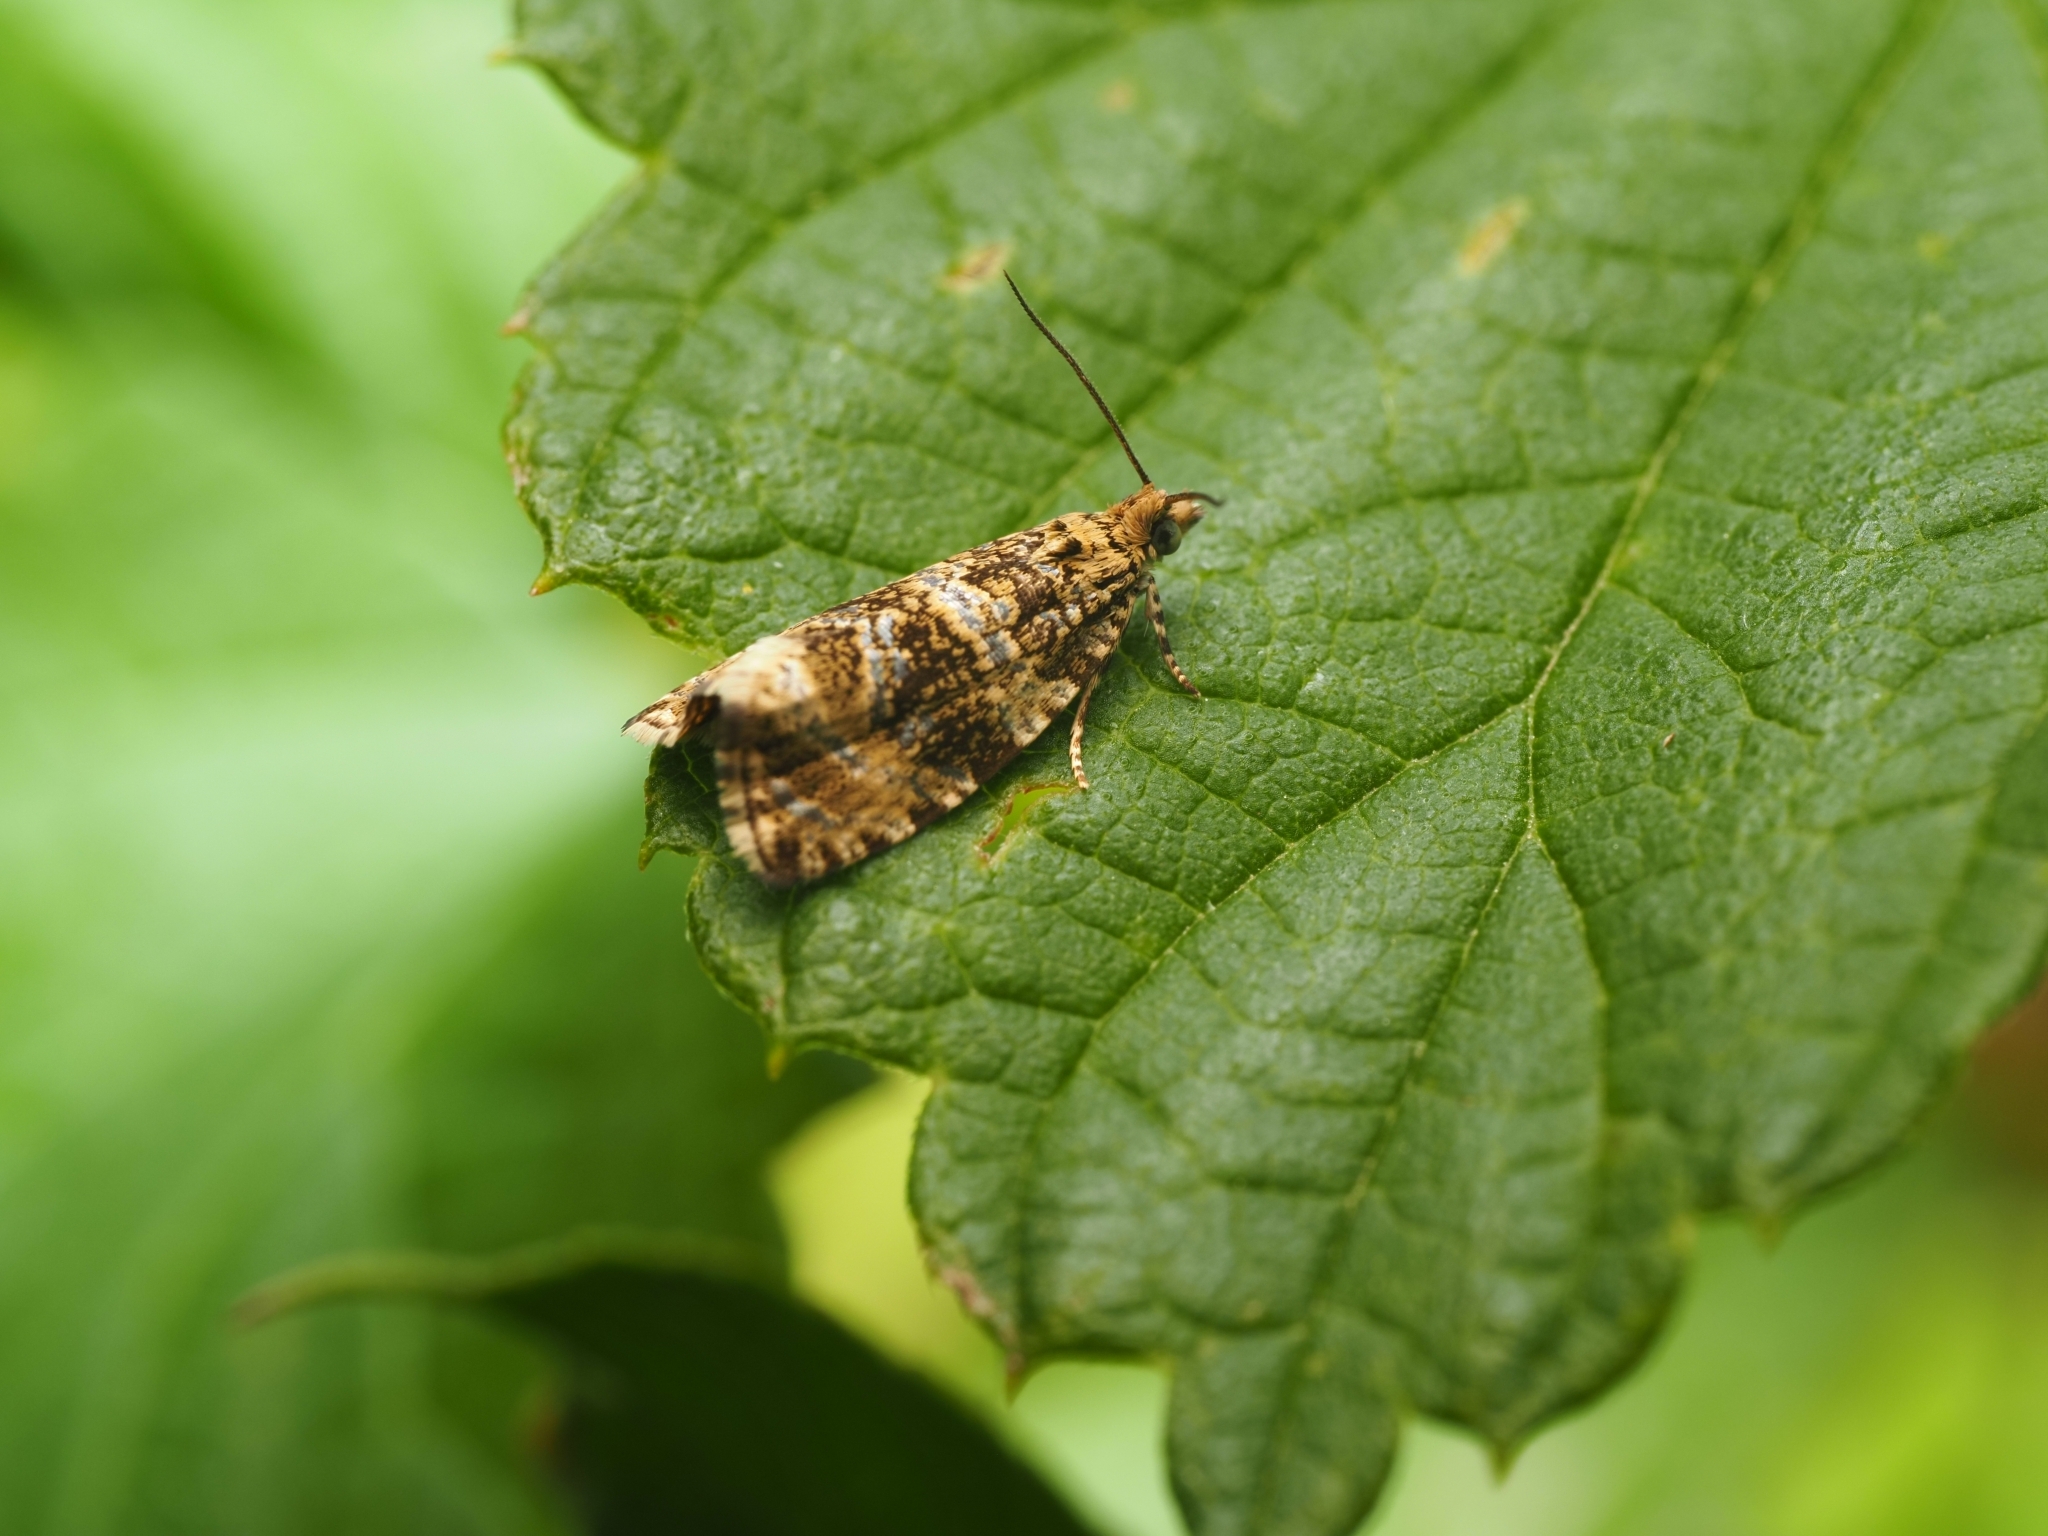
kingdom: Animalia
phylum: Arthropoda
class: Insecta
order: Lepidoptera
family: Tortricidae
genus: Syricoris
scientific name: Syricoris lacunana
